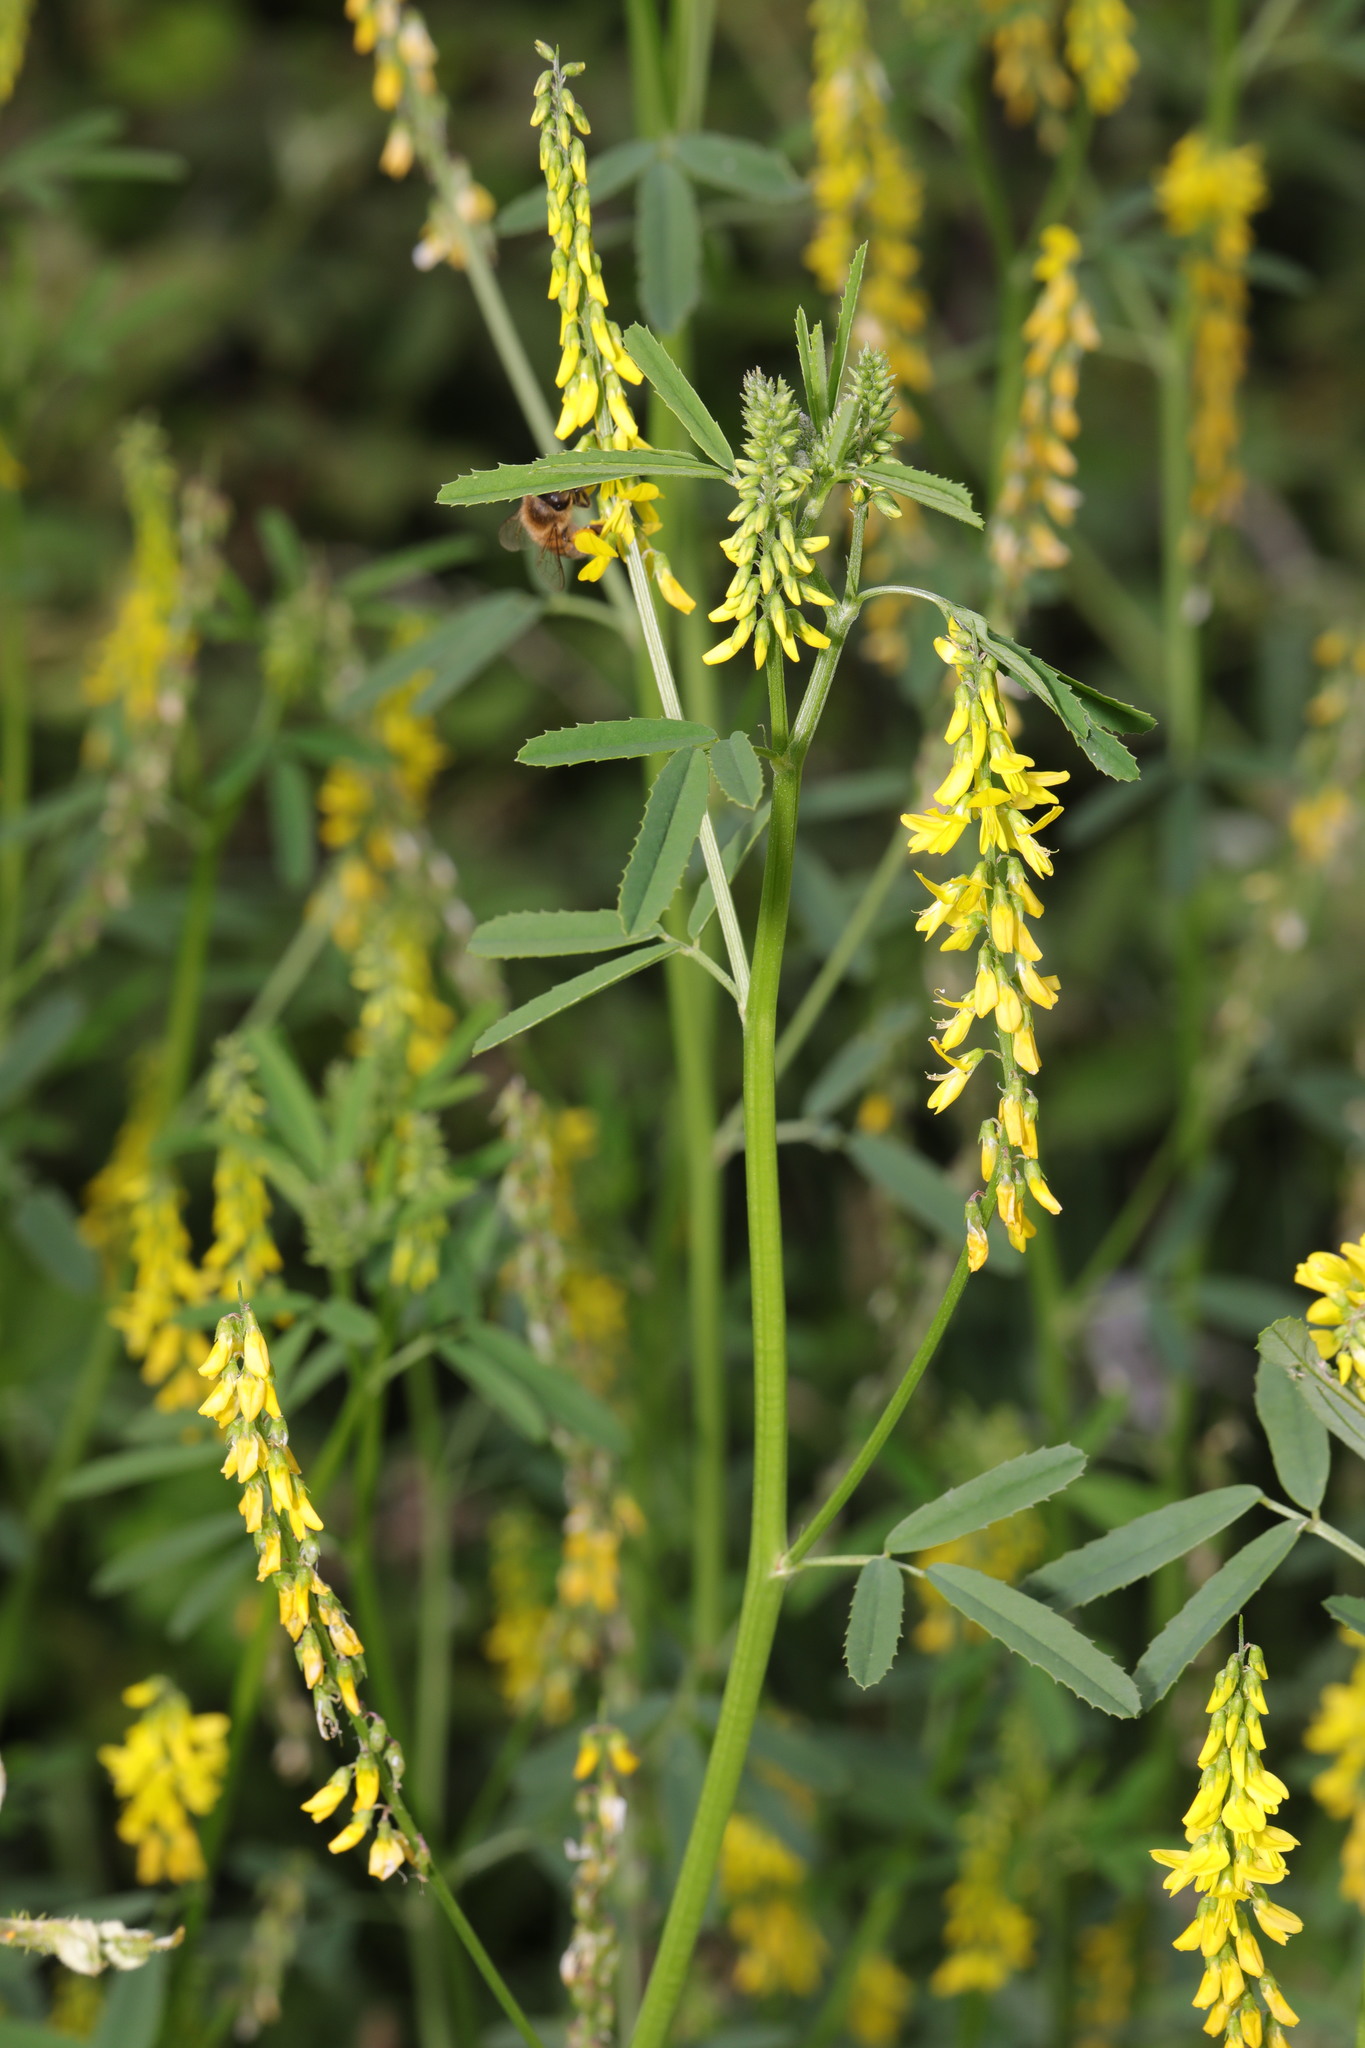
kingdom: Plantae
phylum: Tracheophyta
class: Magnoliopsida
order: Fabales
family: Fabaceae
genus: Melilotus
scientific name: Melilotus officinalis
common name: Sweetclover
